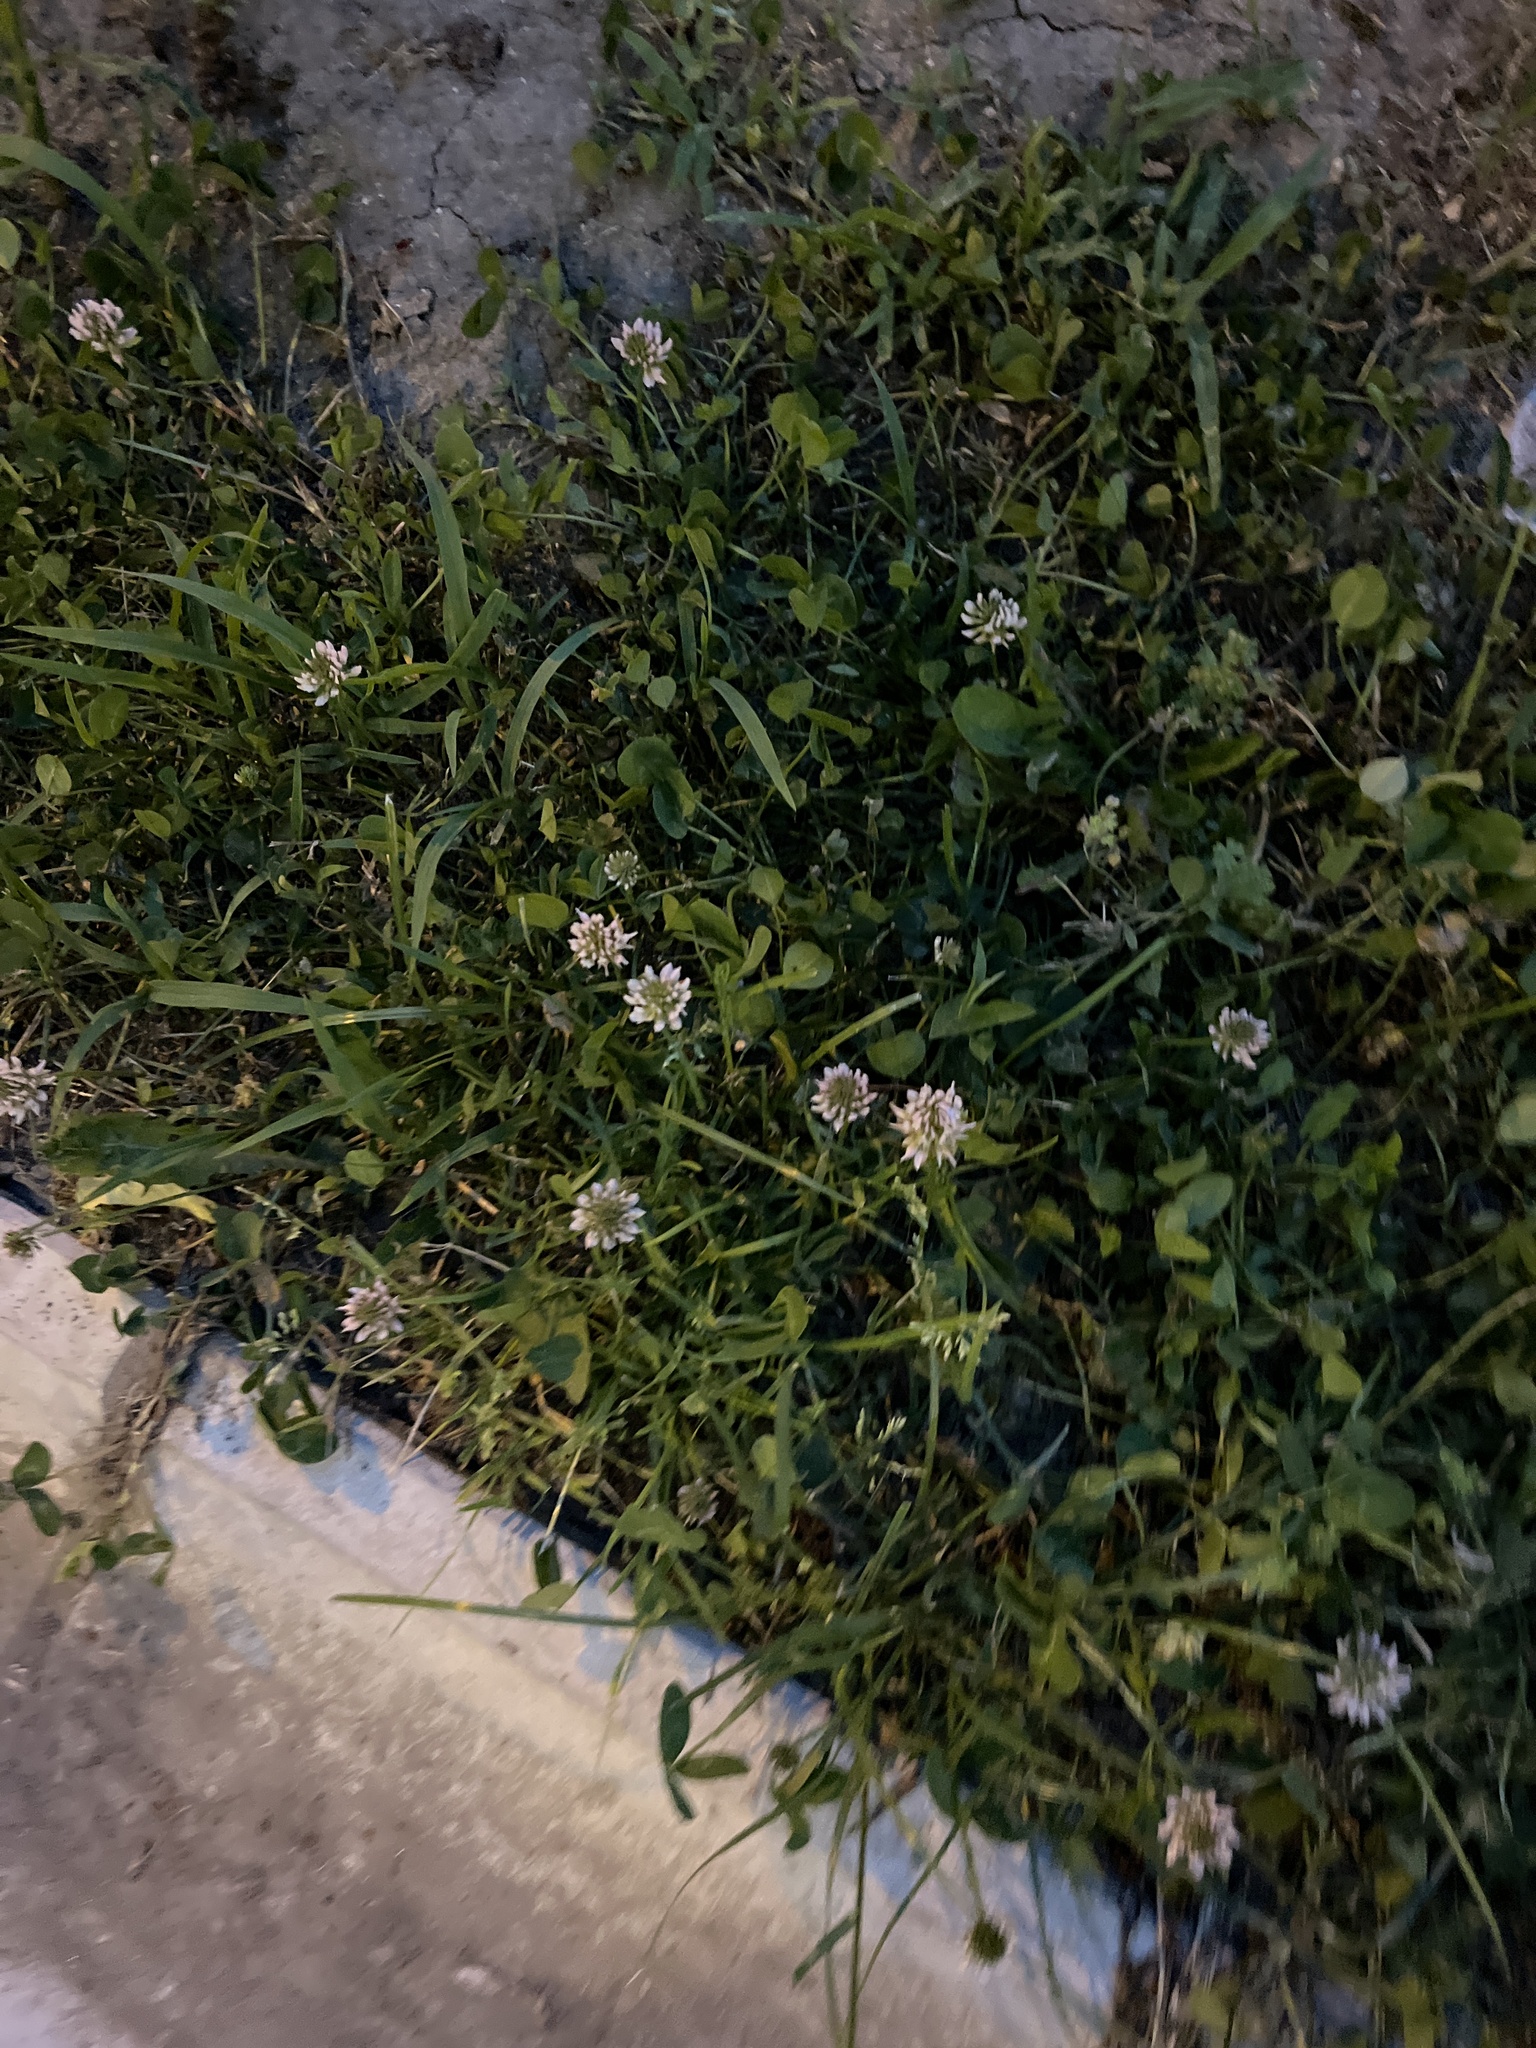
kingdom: Plantae
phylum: Tracheophyta
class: Magnoliopsida
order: Fabales
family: Fabaceae
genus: Trifolium
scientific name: Trifolium repens
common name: White clover
